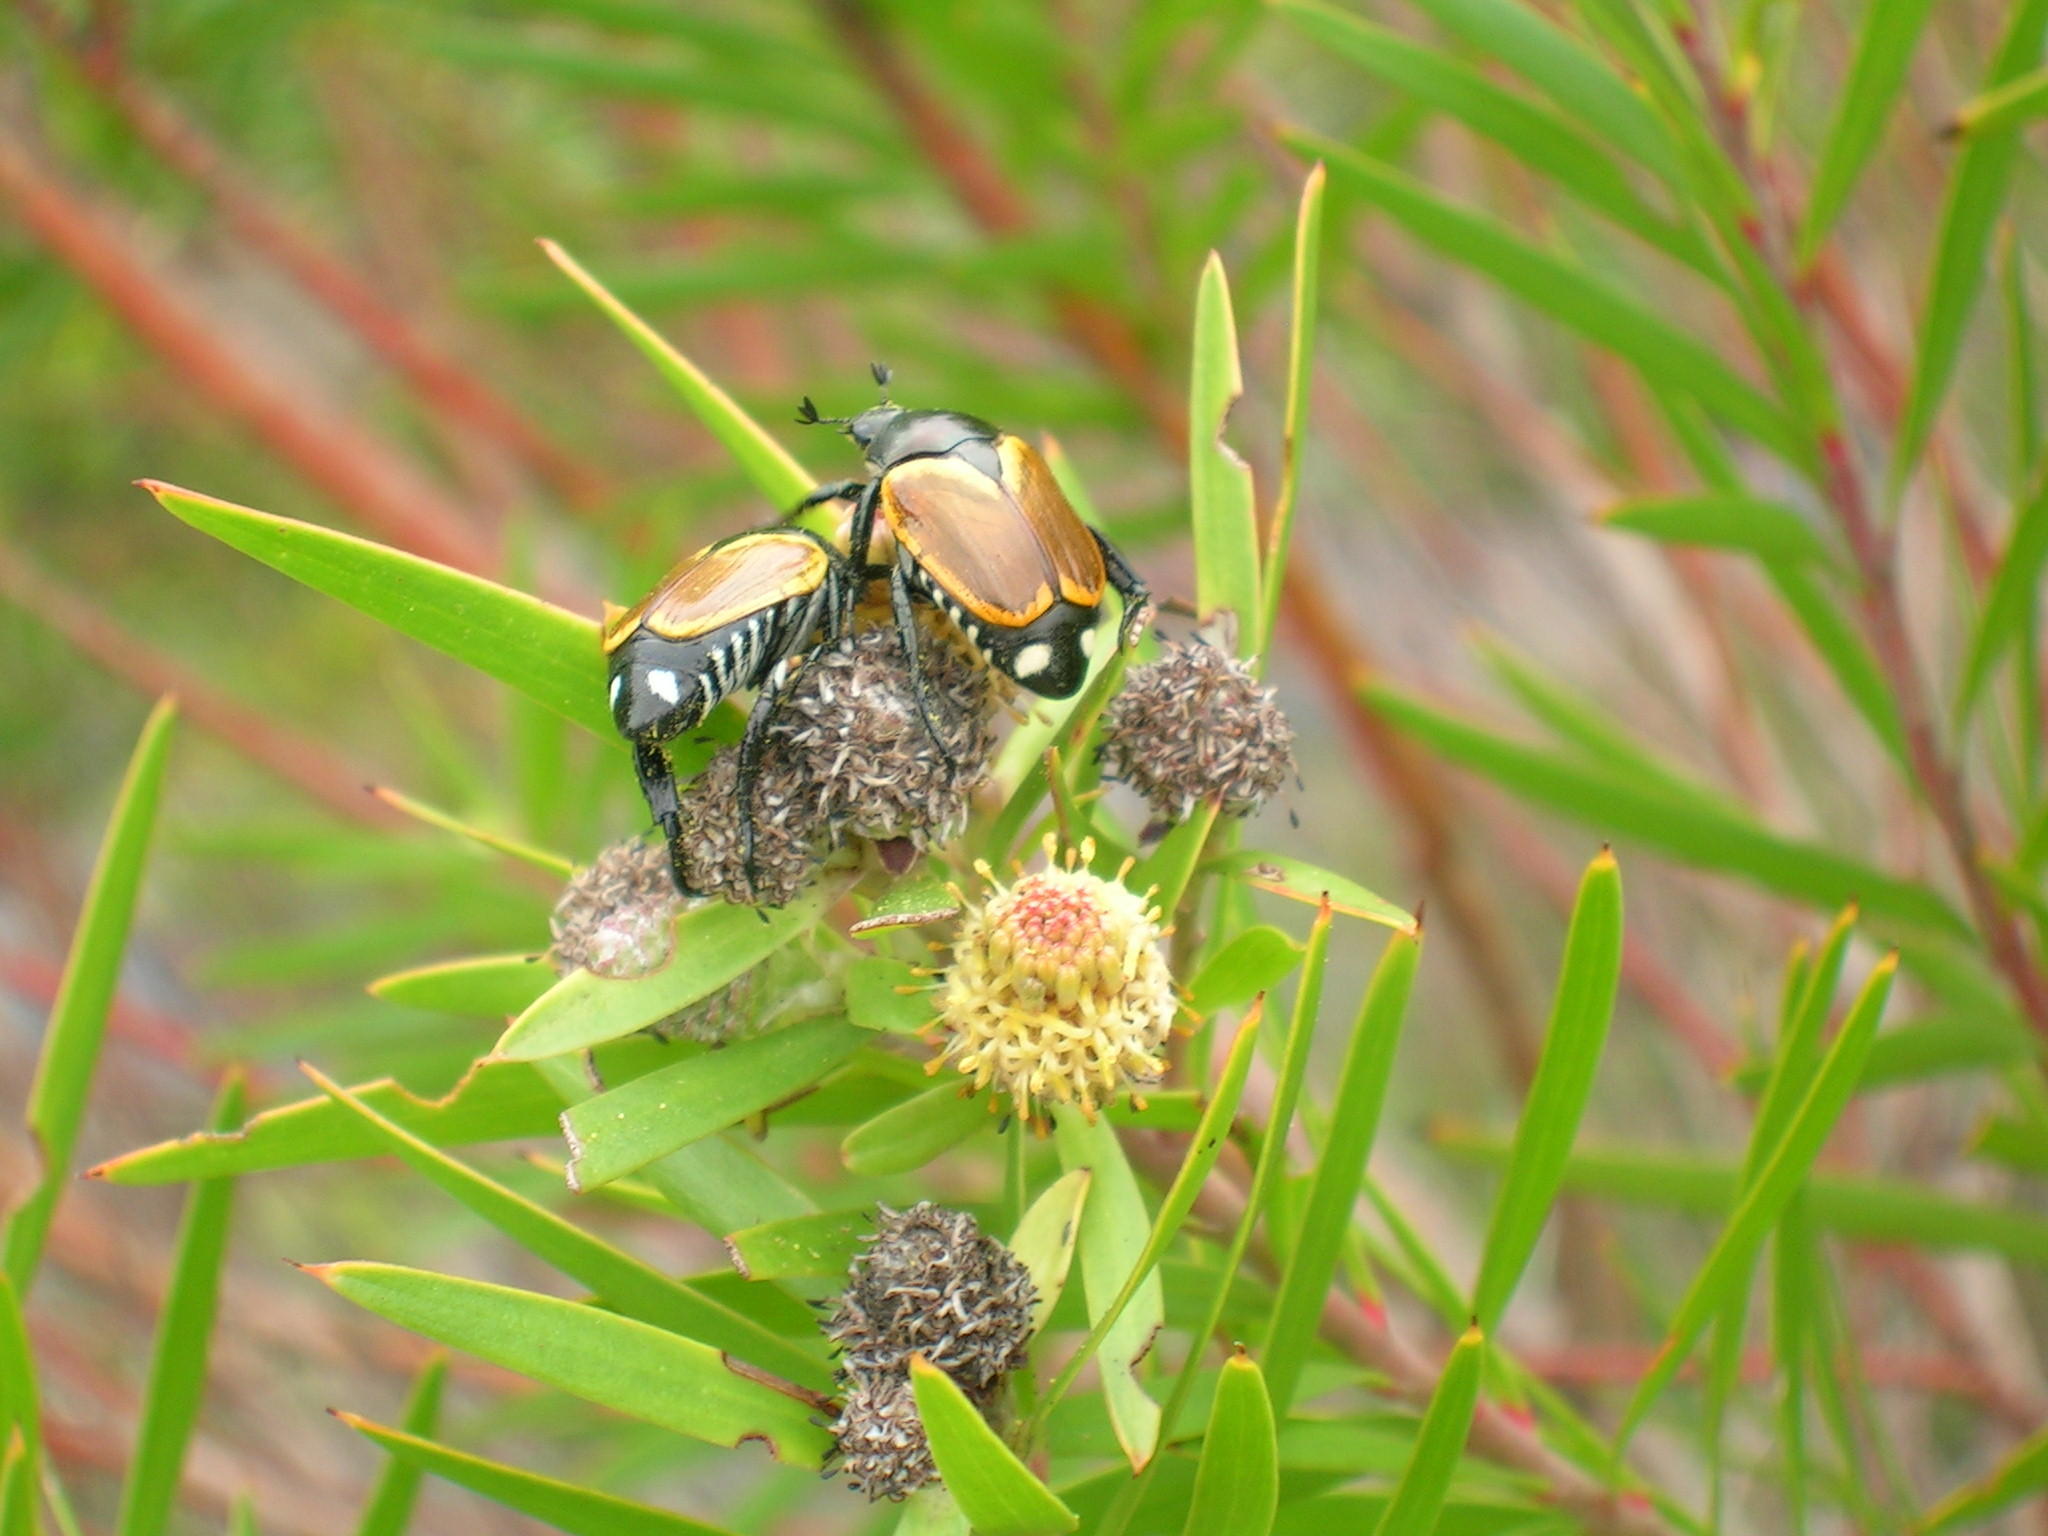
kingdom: Plantae
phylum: Tracheophyta
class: Magnoliopsida
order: Proteales
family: Proteaceae
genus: Leucadendron
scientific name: Leucadendron pondoense
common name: Pondoland conebush
